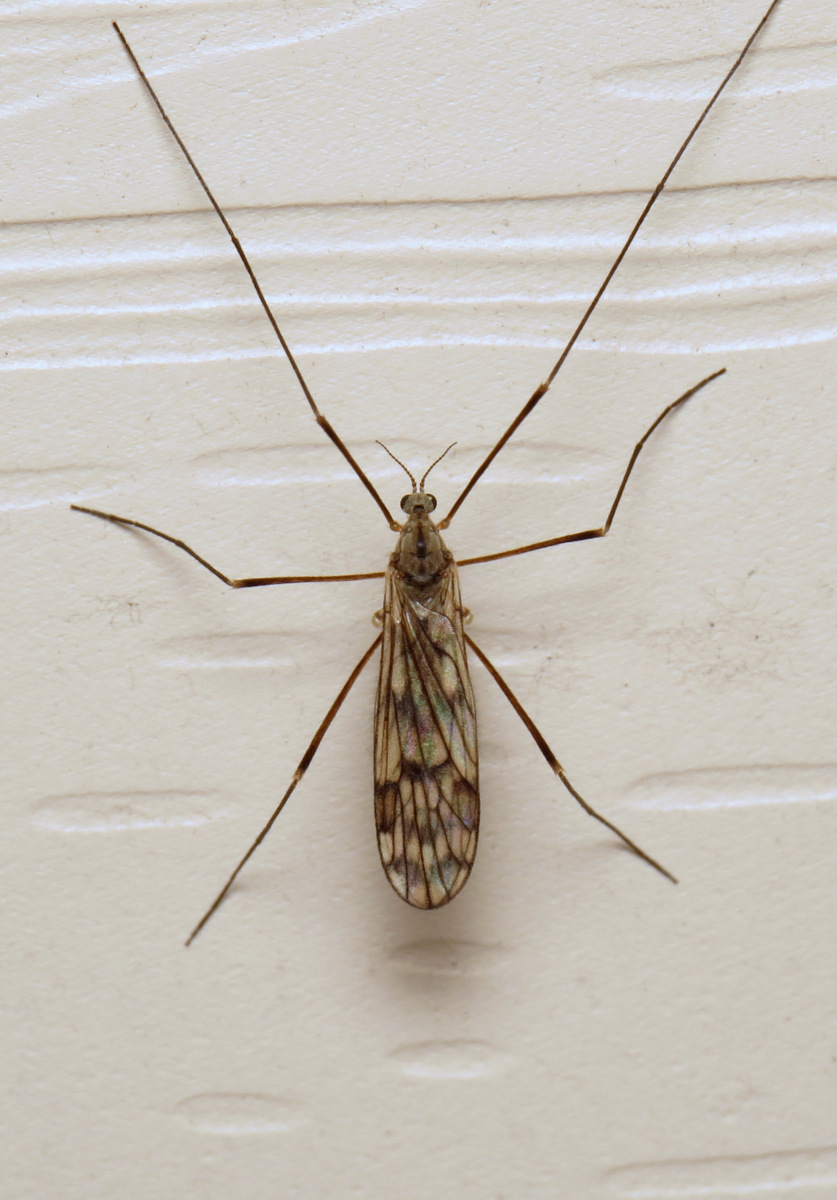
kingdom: Animalia
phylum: Arthropoda
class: Insecta
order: Diptera
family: Limoniidae
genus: Dactylolabis
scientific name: Dactylolabis montana
